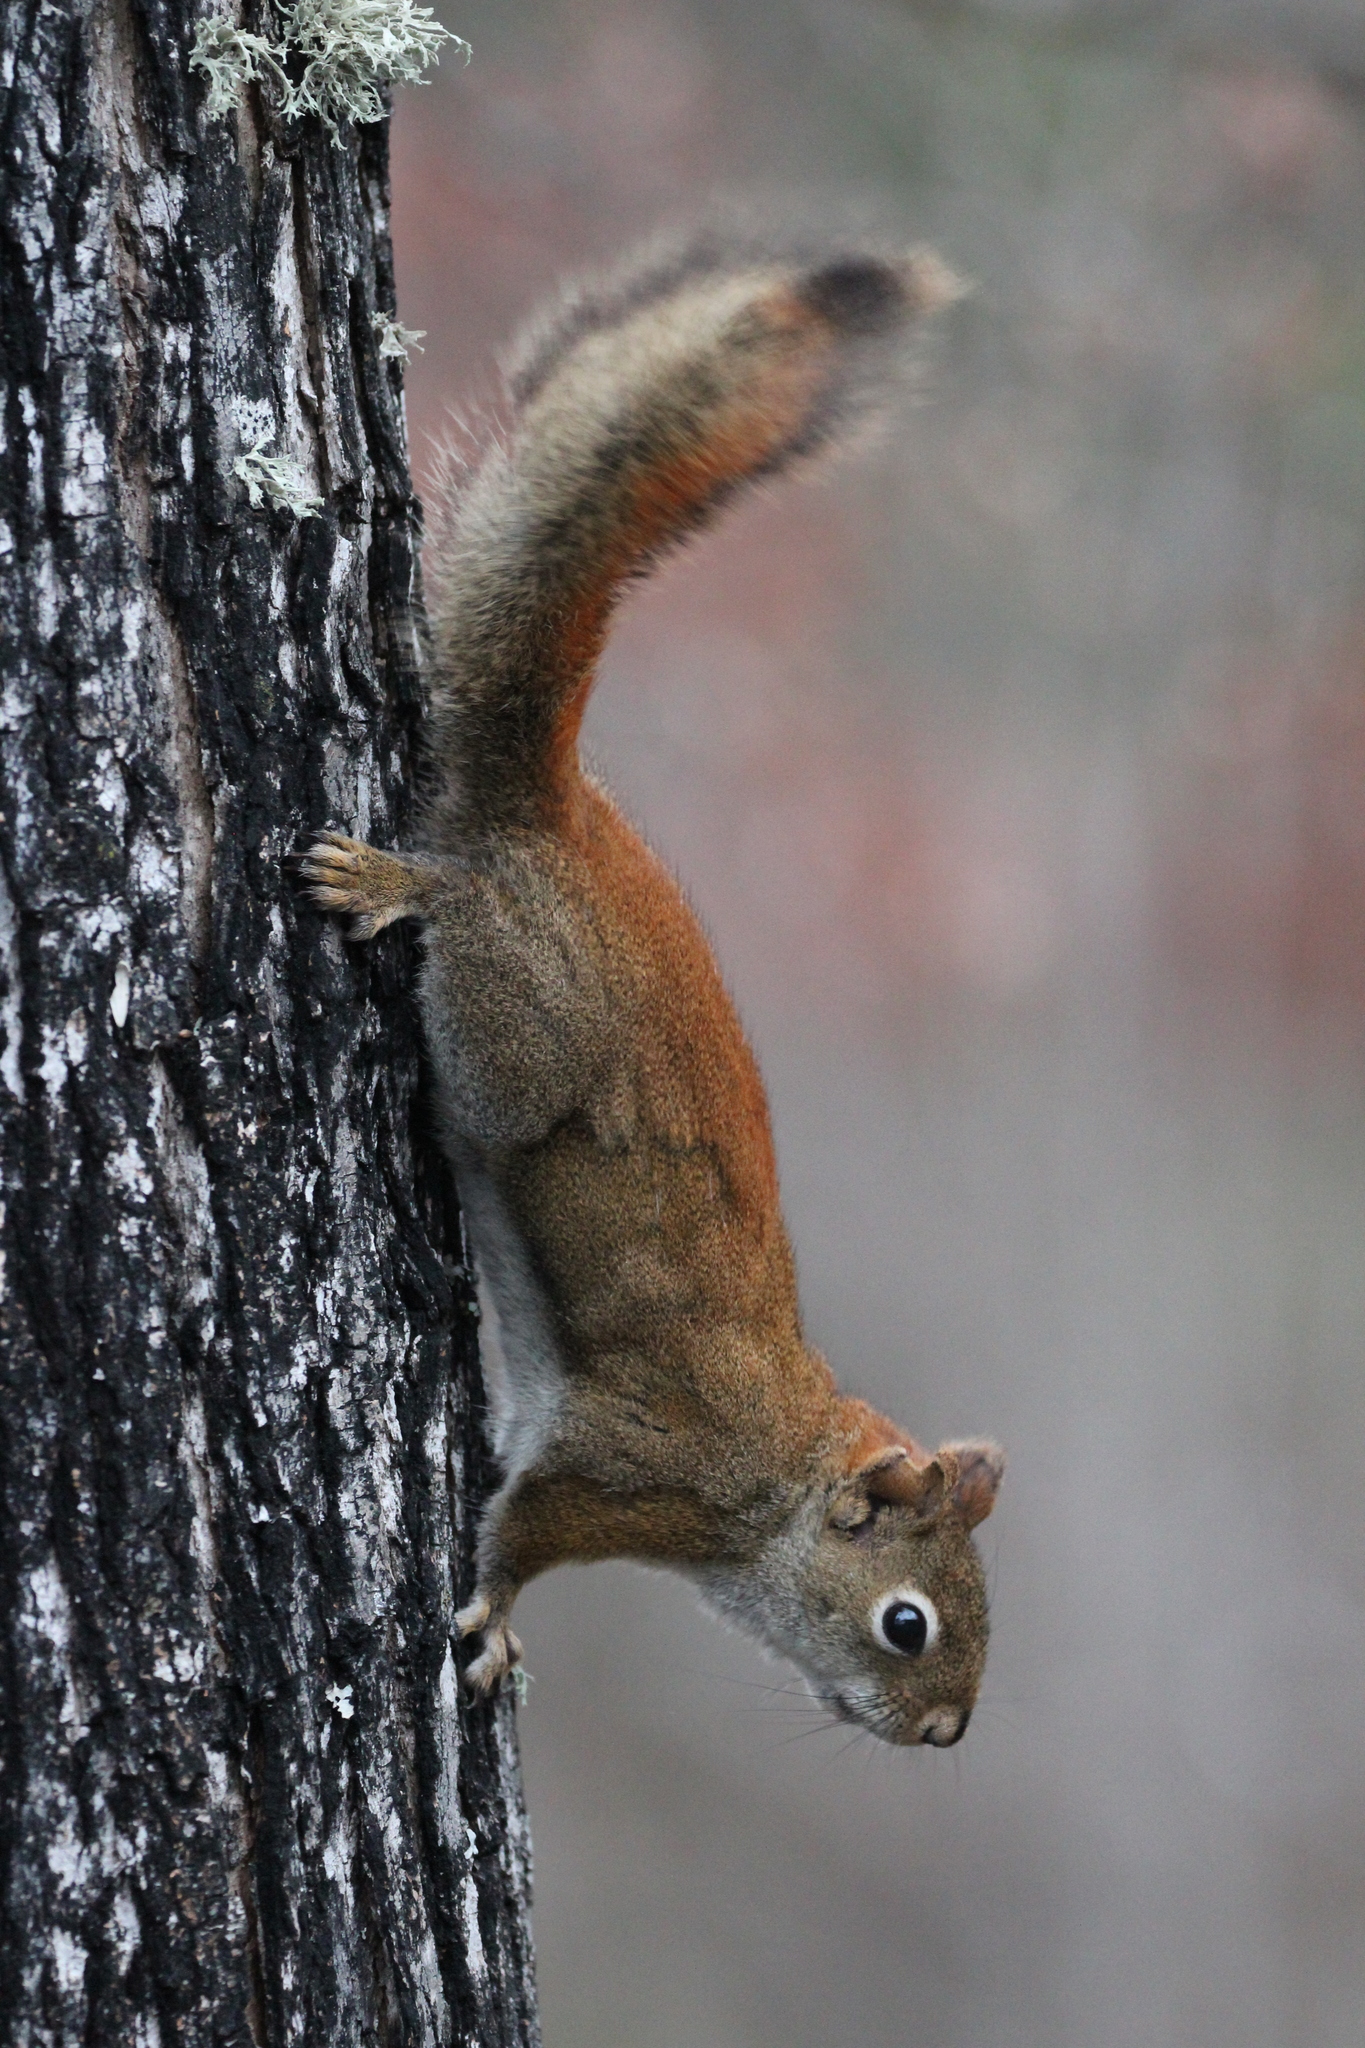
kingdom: Animalia
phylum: Chordata
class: Mammalia
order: Rodentia
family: Sciuridae
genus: Tamiasciurus
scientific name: Tamiasciurus hudsonicus
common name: Red squirrel
